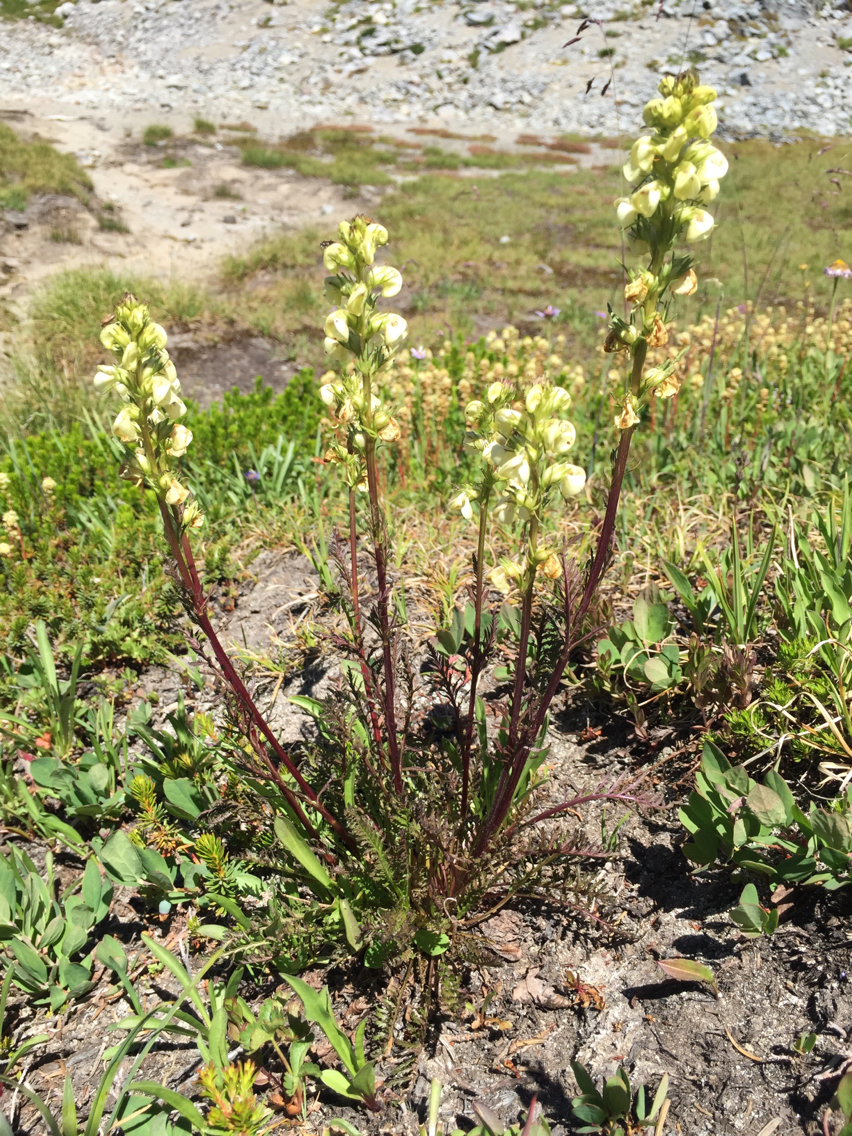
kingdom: Plantae
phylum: Tracheophyta
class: Magnoliopsida
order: Lamiales
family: Orobanchaceae
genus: Pedicularis
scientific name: Pedicularis contorta
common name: Coiled lousewort
